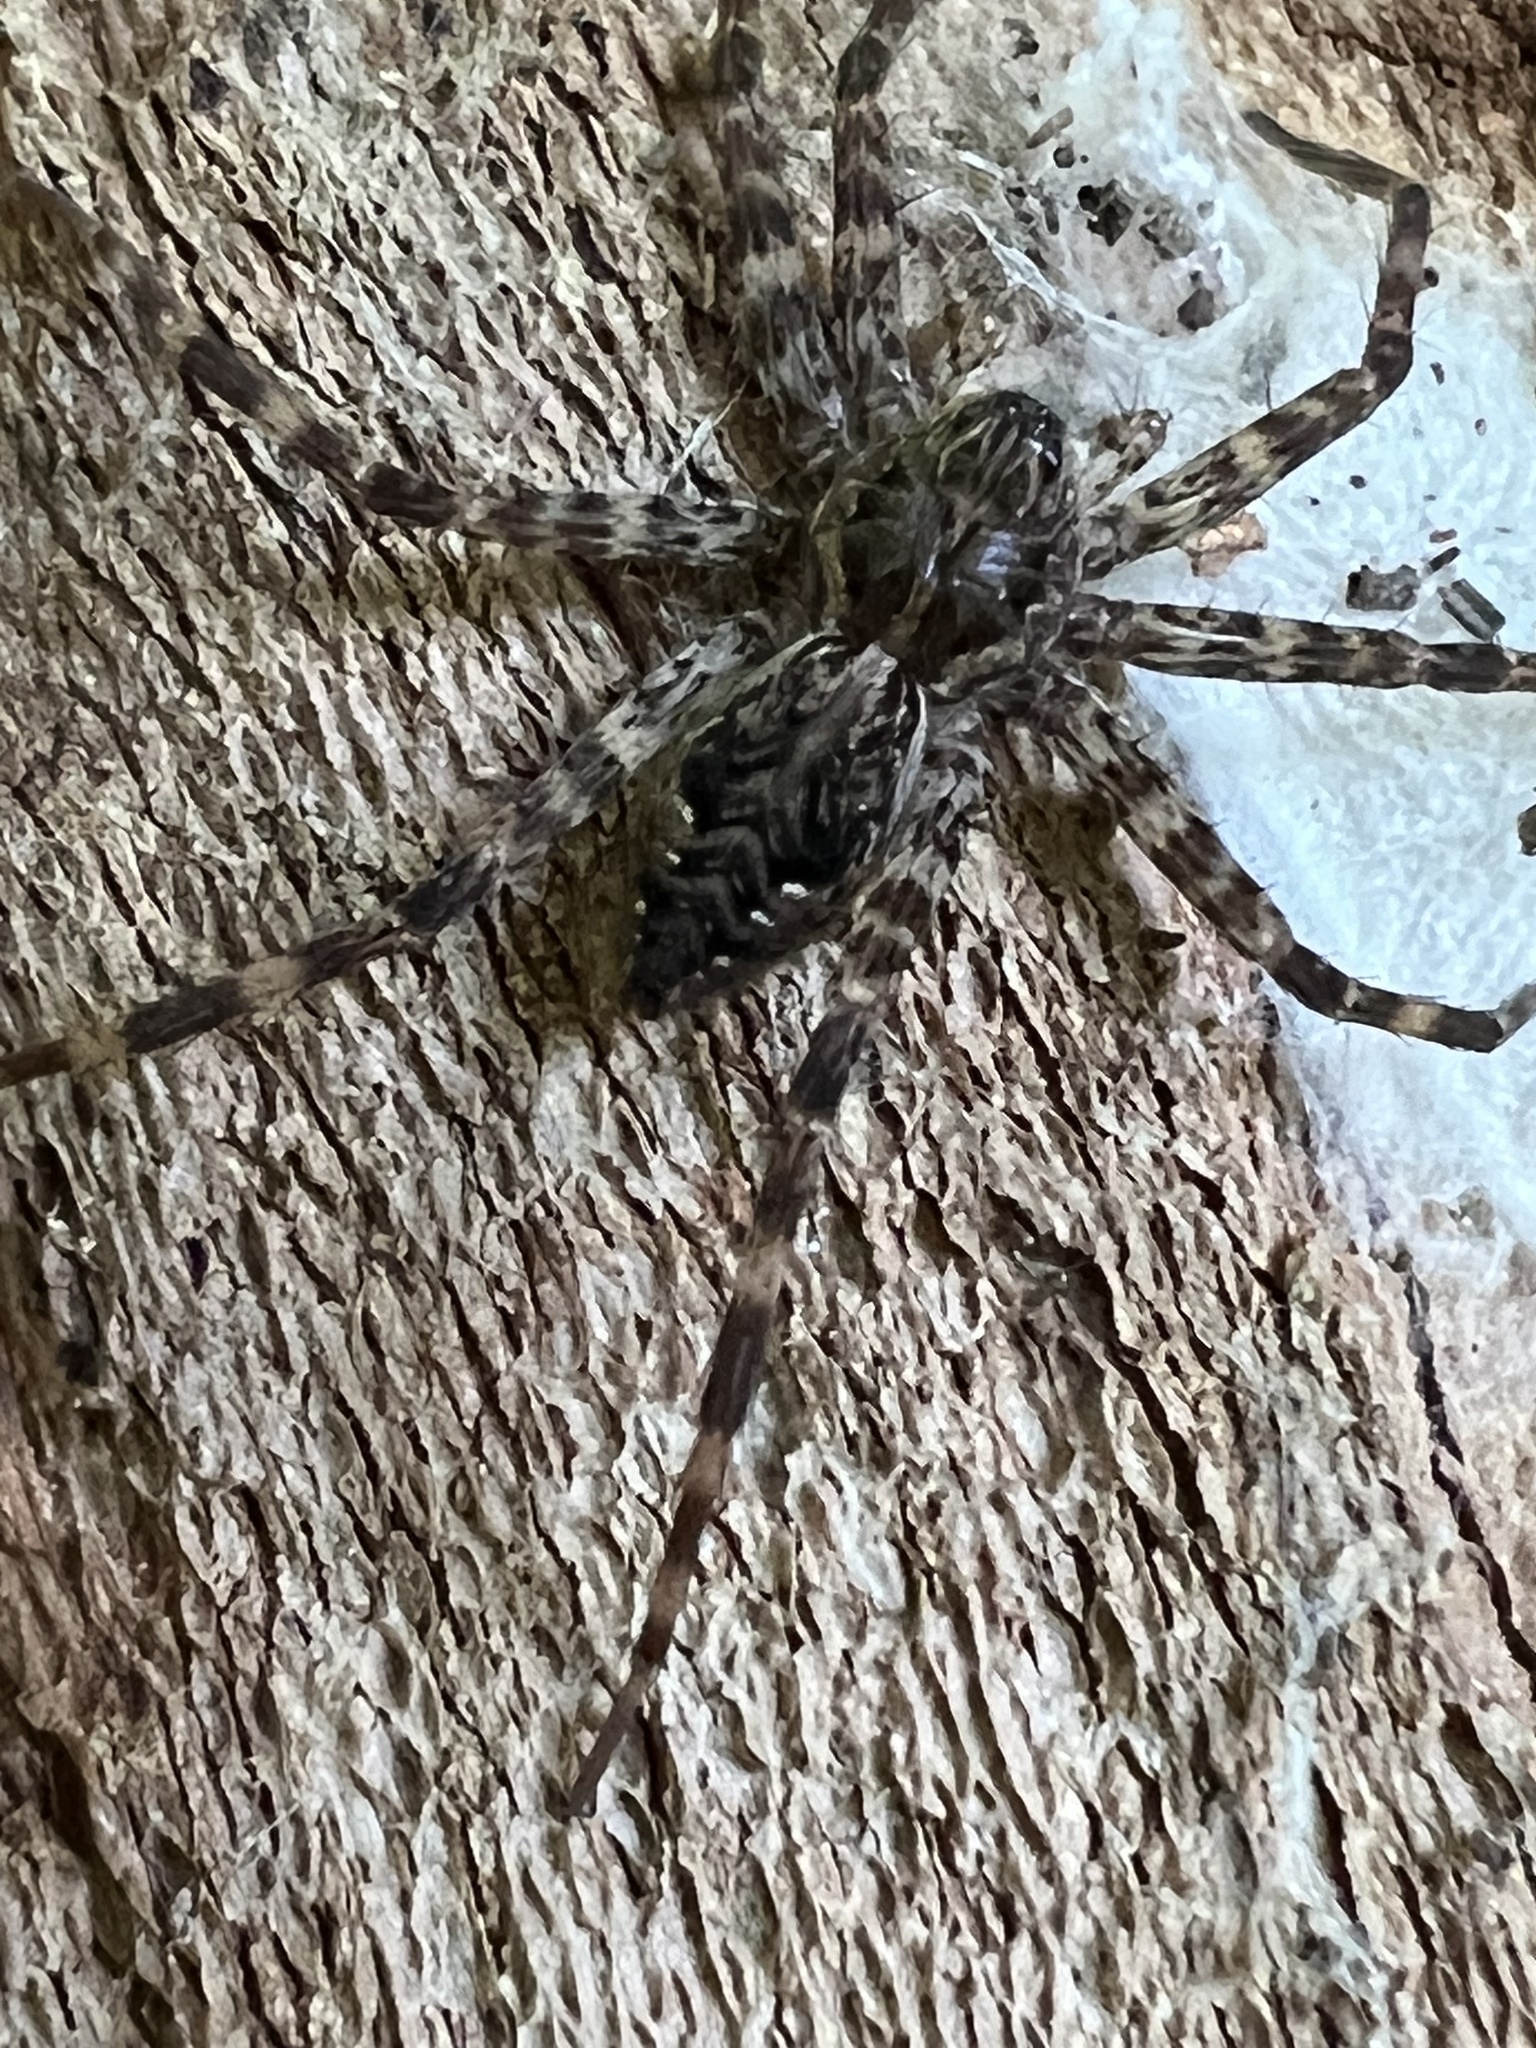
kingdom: Animalia
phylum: Arthropoda
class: Arachnida
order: Araneae
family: Pisauridae
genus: Dolomedes
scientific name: Dolomedes tenebrosus
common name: Dark fishing spider
